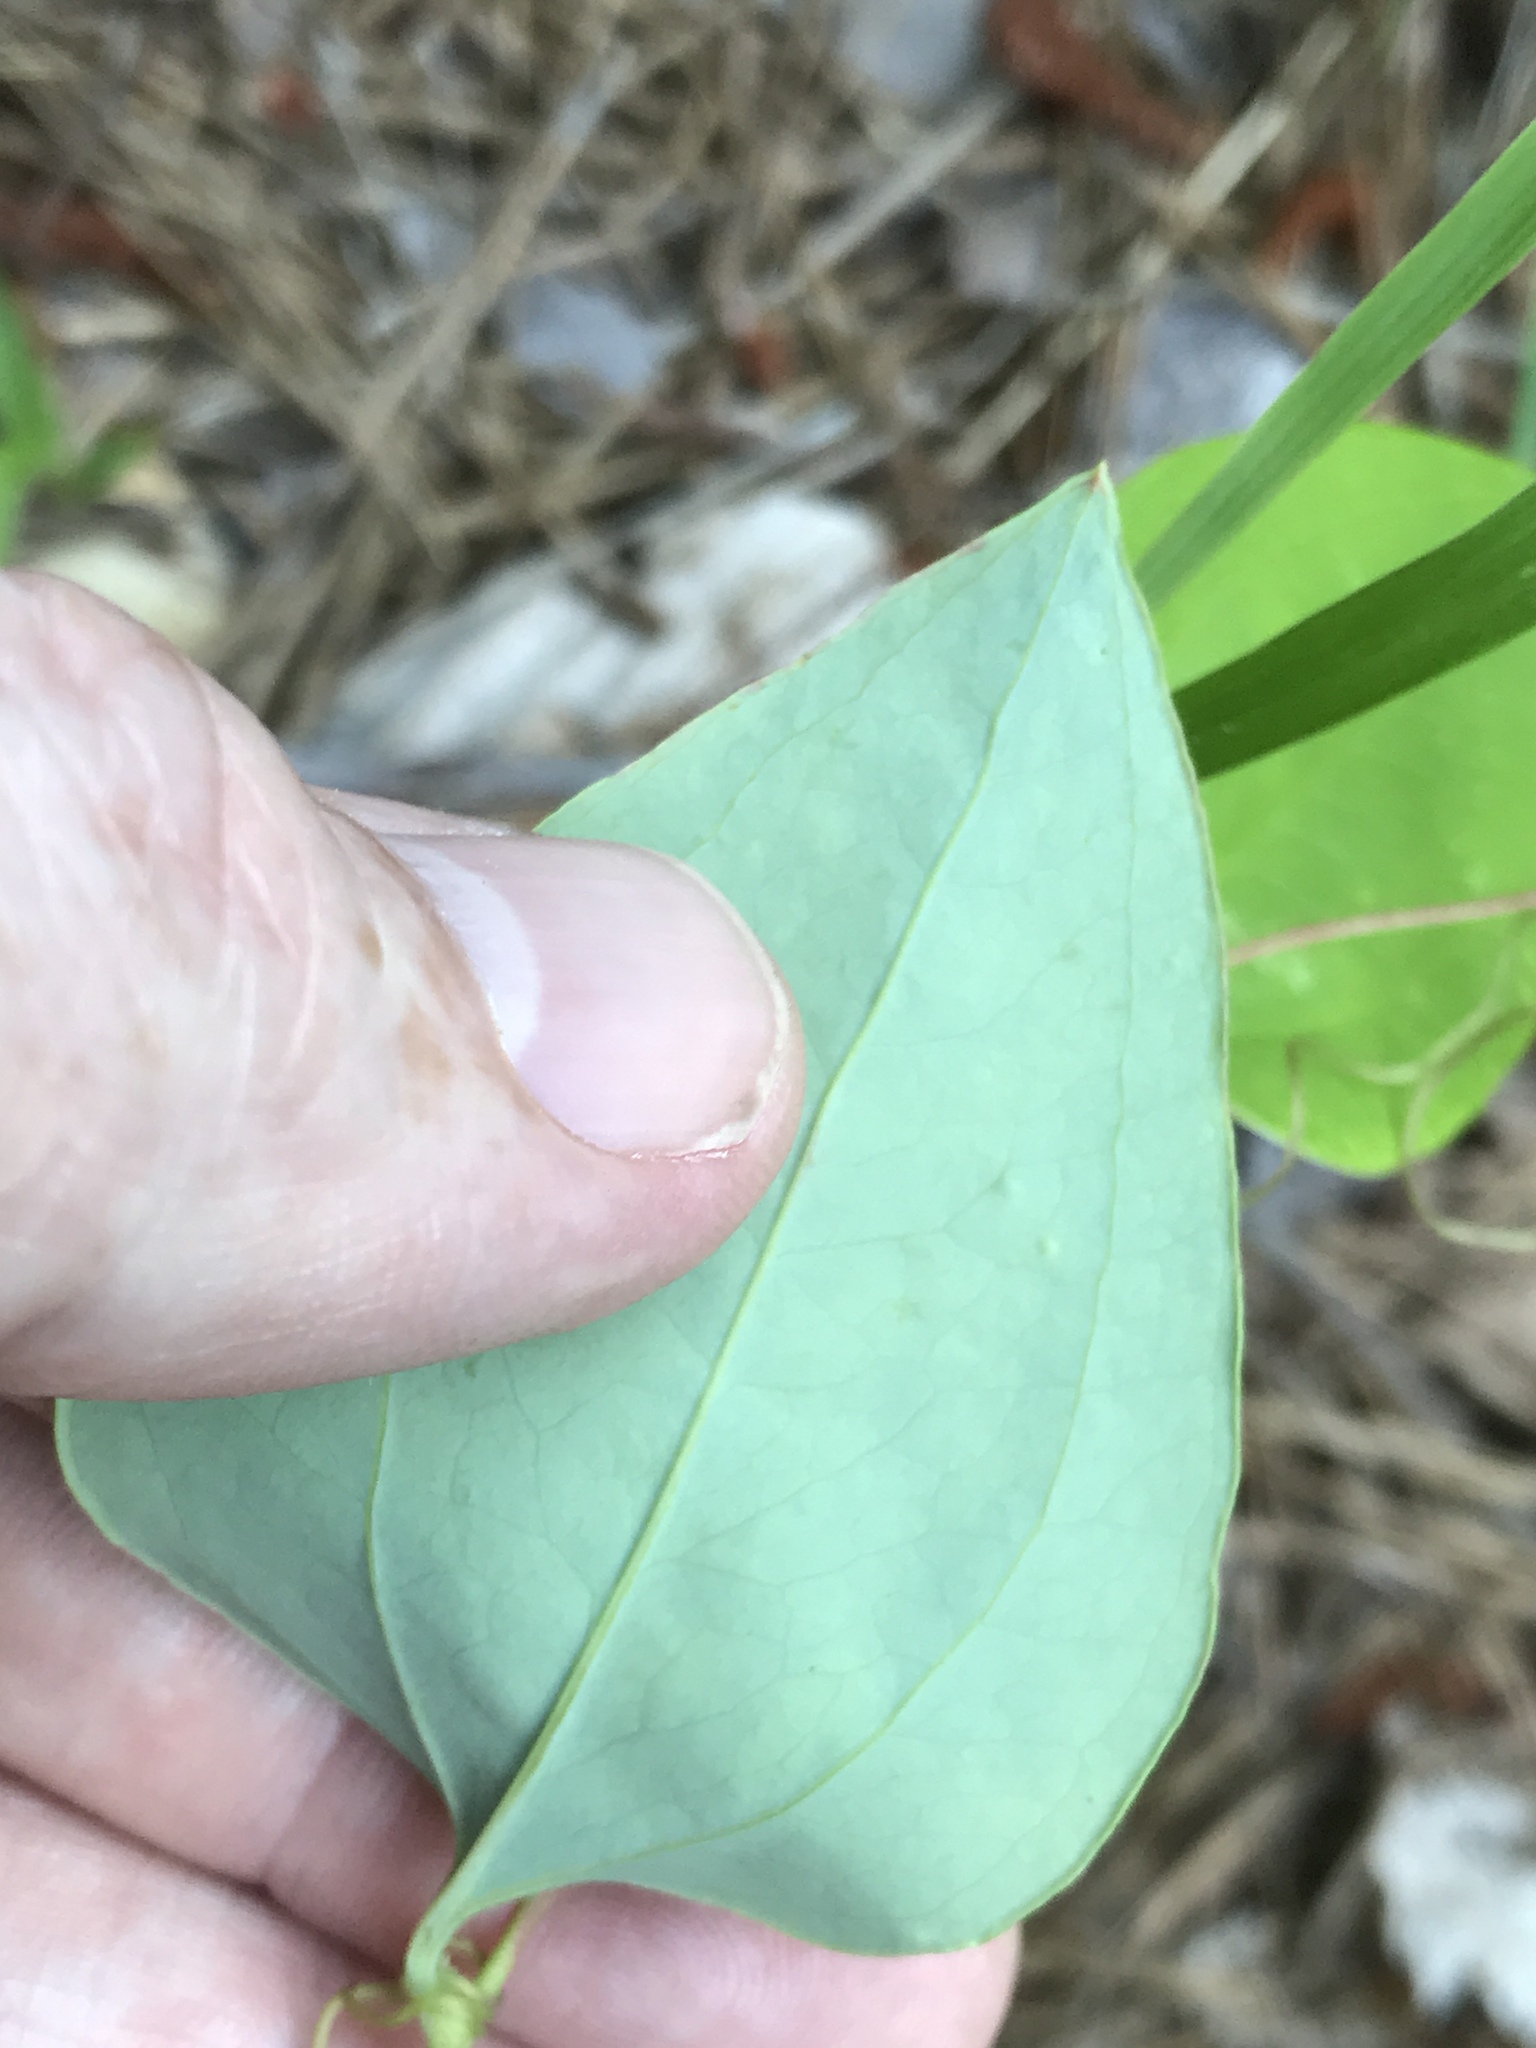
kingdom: Plantae
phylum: Tracheophyta
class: Liliopsida
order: Liliales
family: Smilacaceae
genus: Smilax
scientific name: Smilax glauca
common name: Cat greenbrier
